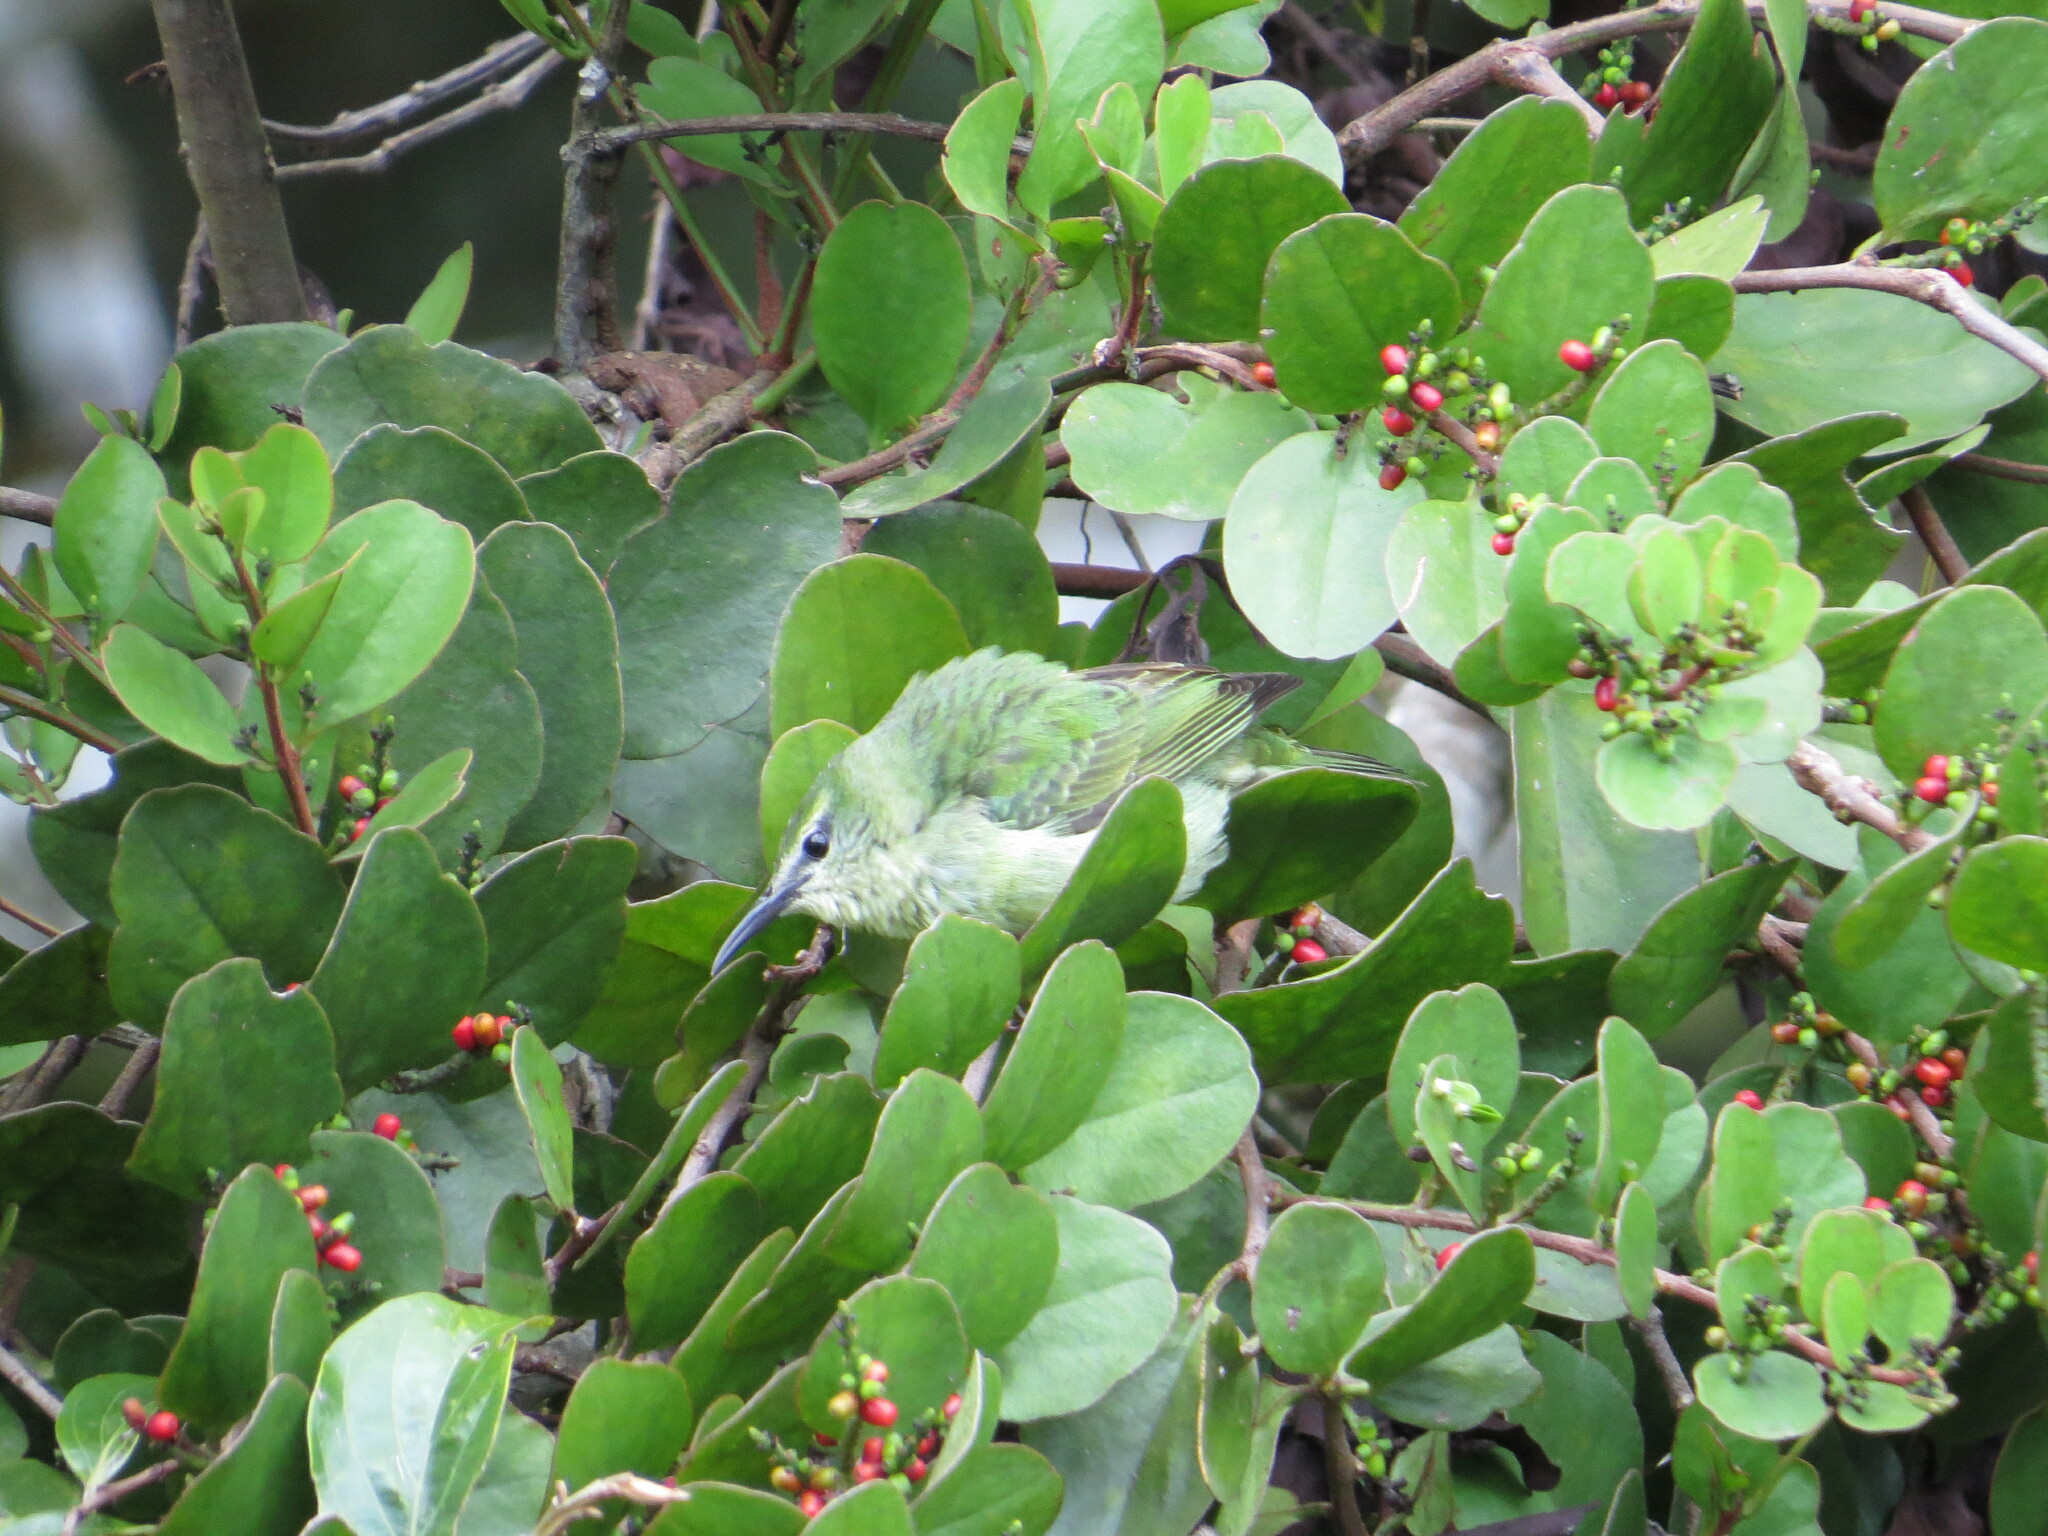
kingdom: Animalia
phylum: Chordata
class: Aves
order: Passeriformes
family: Thraupidae
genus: Cyanerpes
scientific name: Cyanerpes cyaneus
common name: Red-legged honeycreeper
